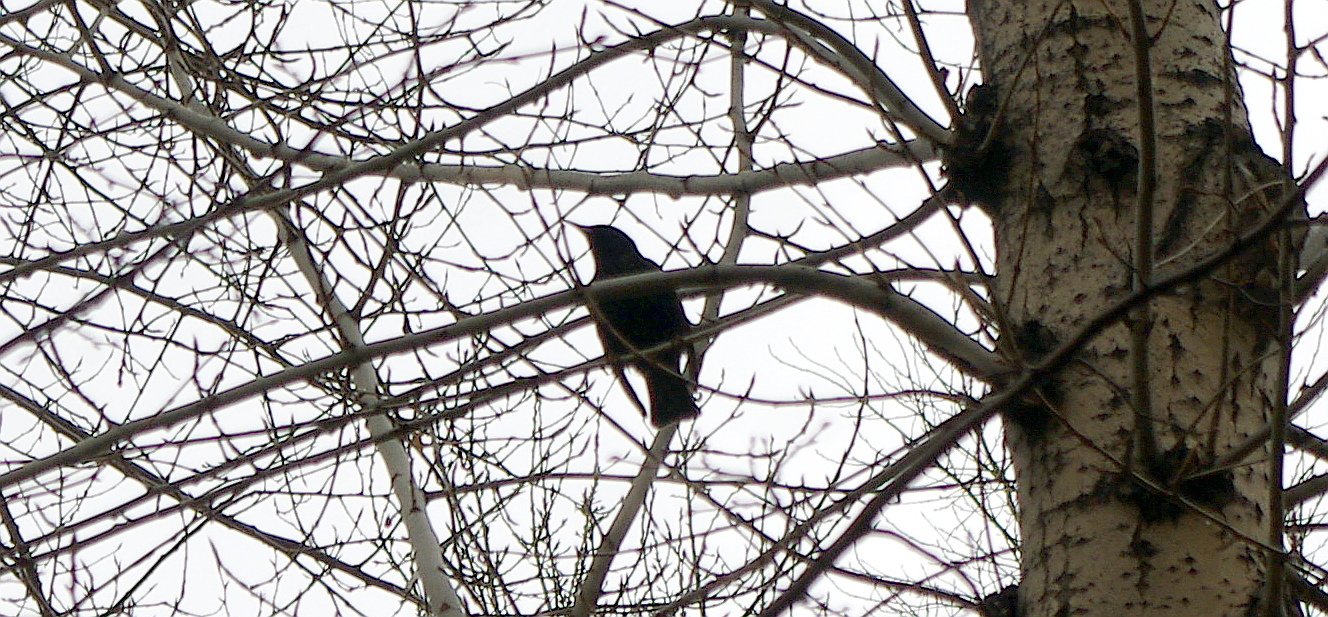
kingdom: Animalia
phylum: Chordata
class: Aves
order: Passeriformes
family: Sturnidae
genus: Sturnus
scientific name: Sturnus vulgaris
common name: Common starling
